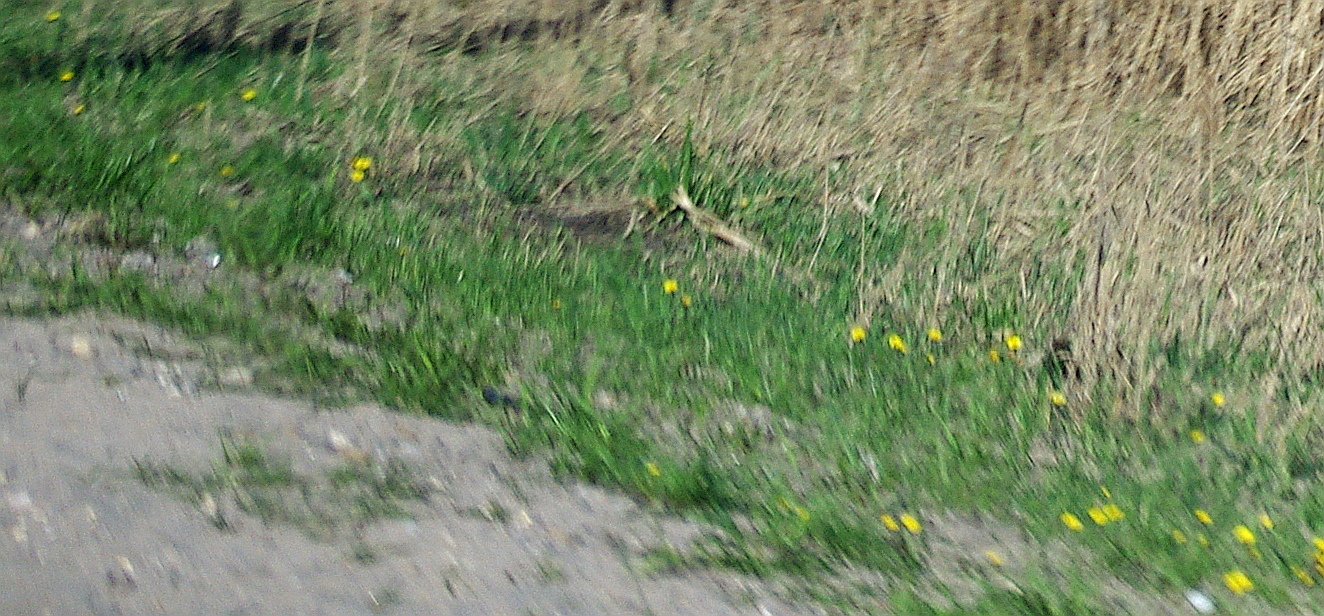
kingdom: Plantae
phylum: Tracheophyta
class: Magnoliopsida
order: Asterales
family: Asteraceae
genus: Tussilago
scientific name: Tussilago farfara
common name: Coltsfoot
